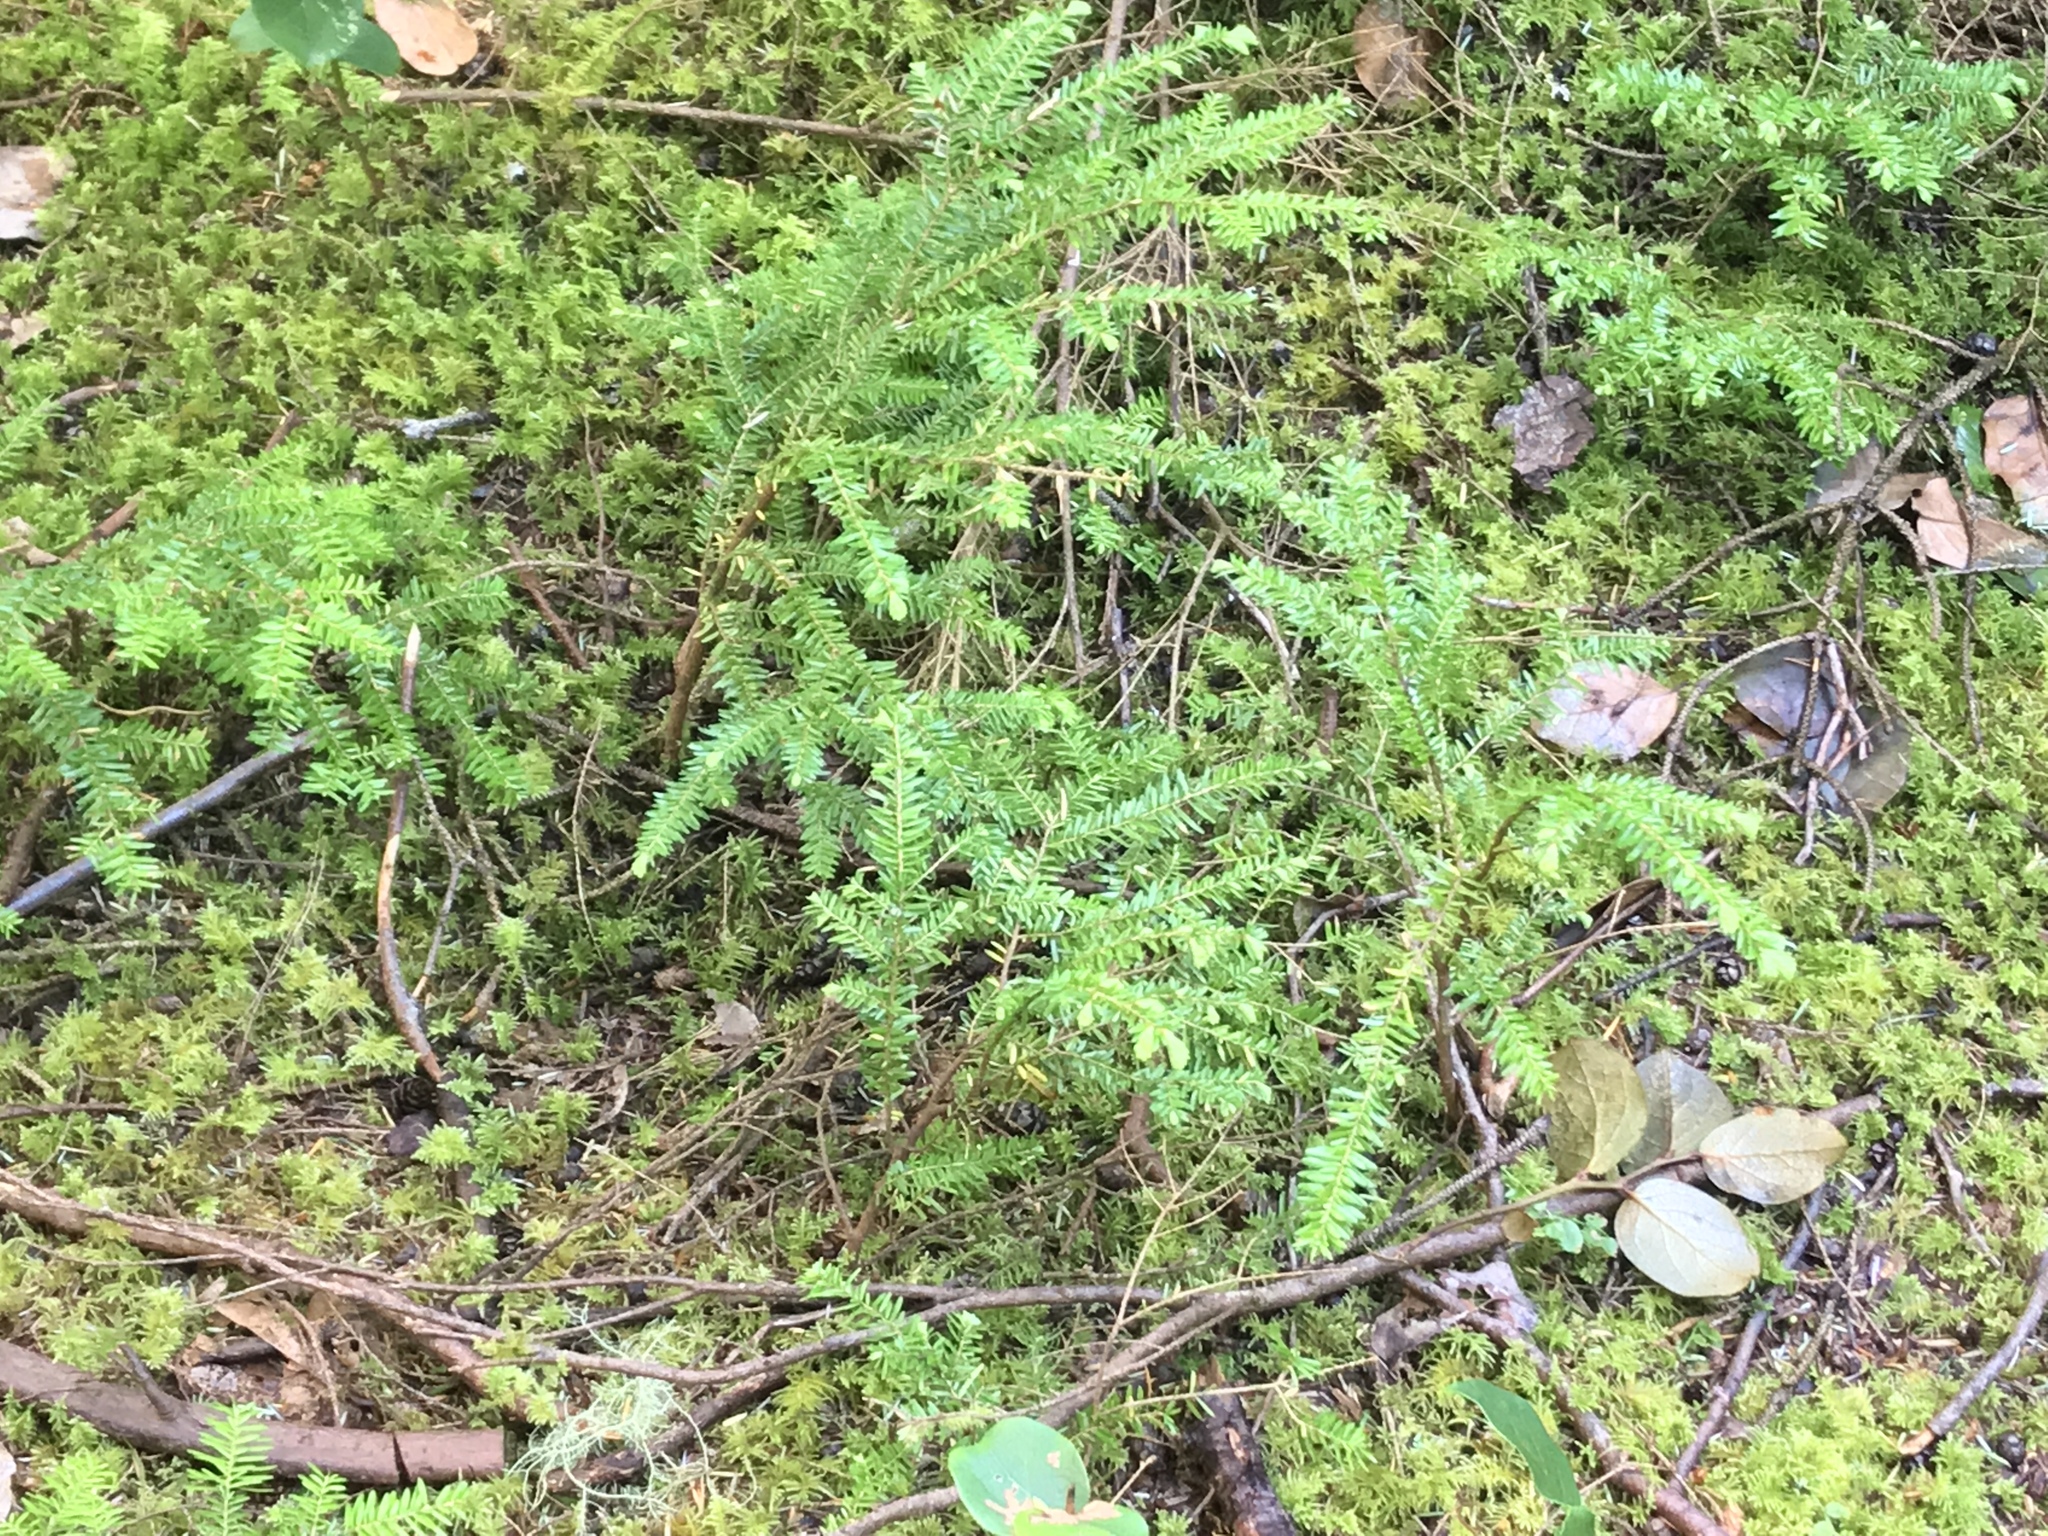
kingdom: Plantae
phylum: Tracheophyta
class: Pinopsida
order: Pinales
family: Pinaceae
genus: Tsuga
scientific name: Tsuga heterophylla
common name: Western hemlock
